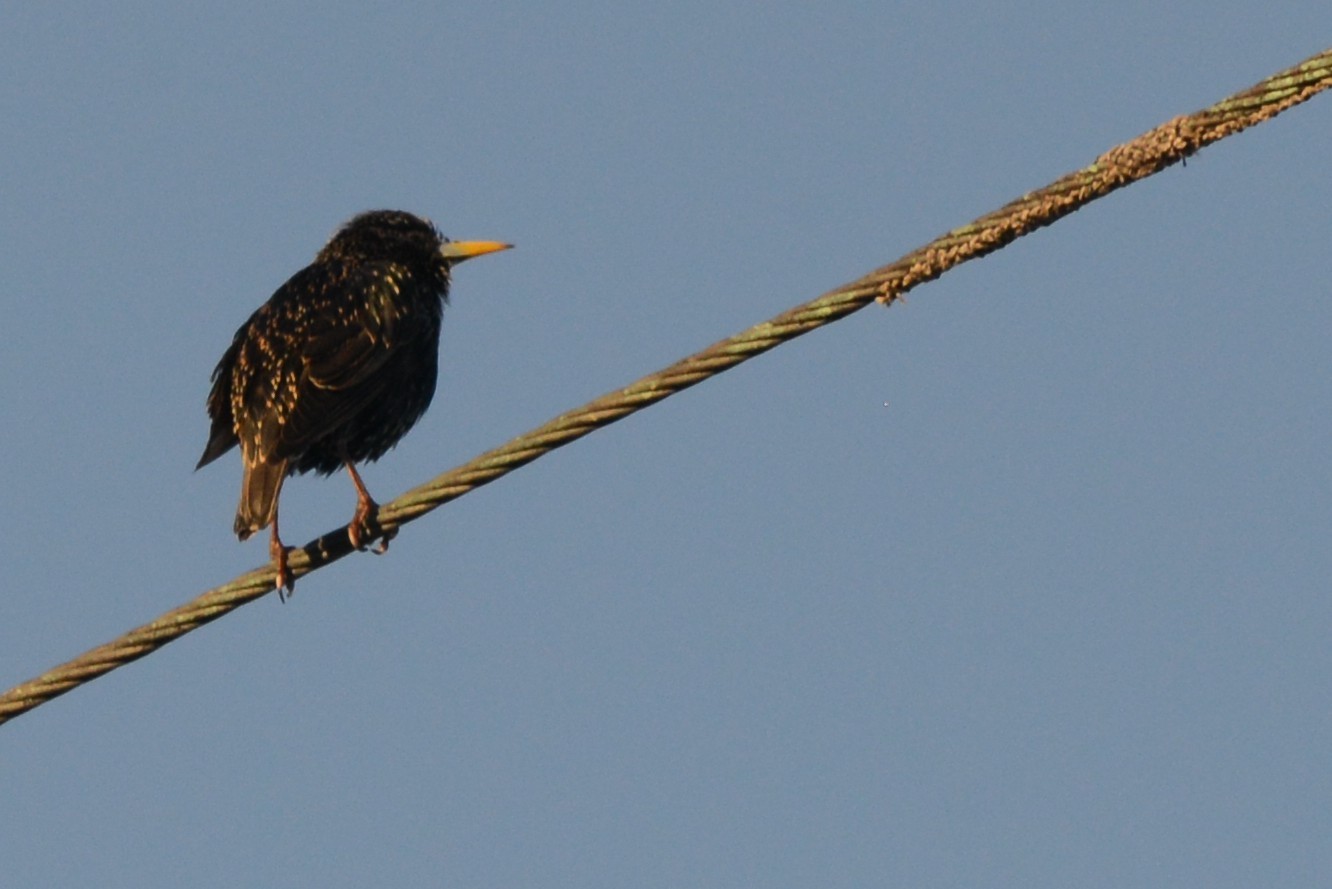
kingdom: Animalia
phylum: Chordata
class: Aves
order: Passeriformes
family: Sturnidae
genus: Sturnus
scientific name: Sturnus vulgaris
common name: Common starling
